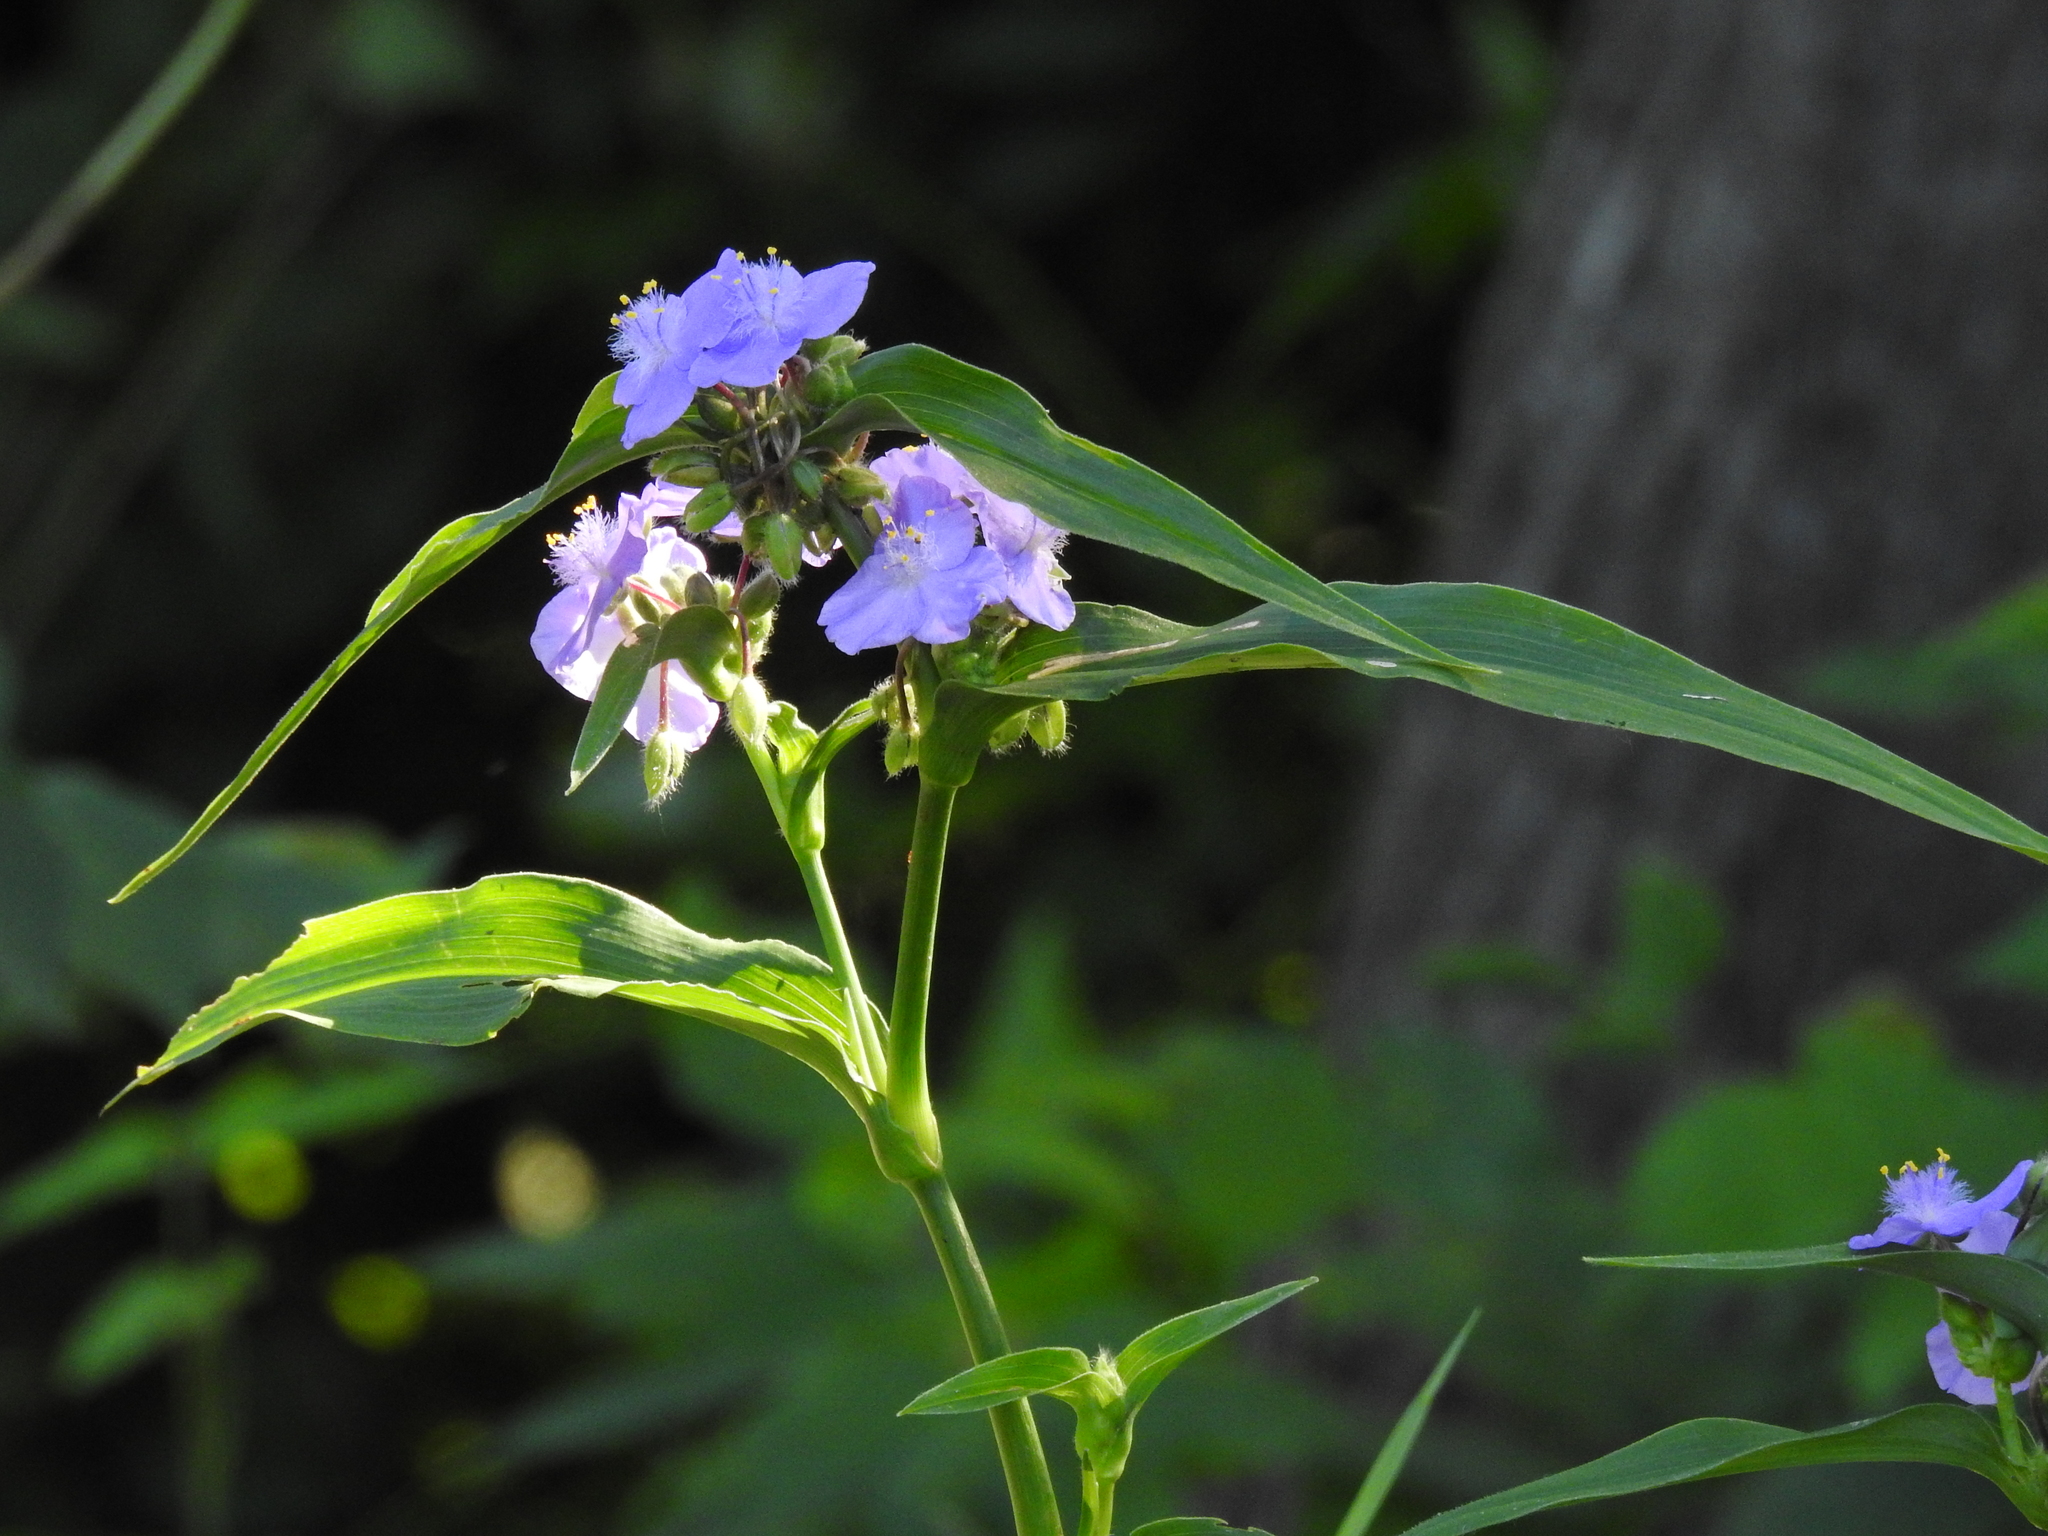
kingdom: Plantae
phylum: Tracheophyta
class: Liliopsida
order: Commelinales
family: Commelinaceae
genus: Tradescantia
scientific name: Tradescantia subaspera
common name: Wide-leaf spiderwort
